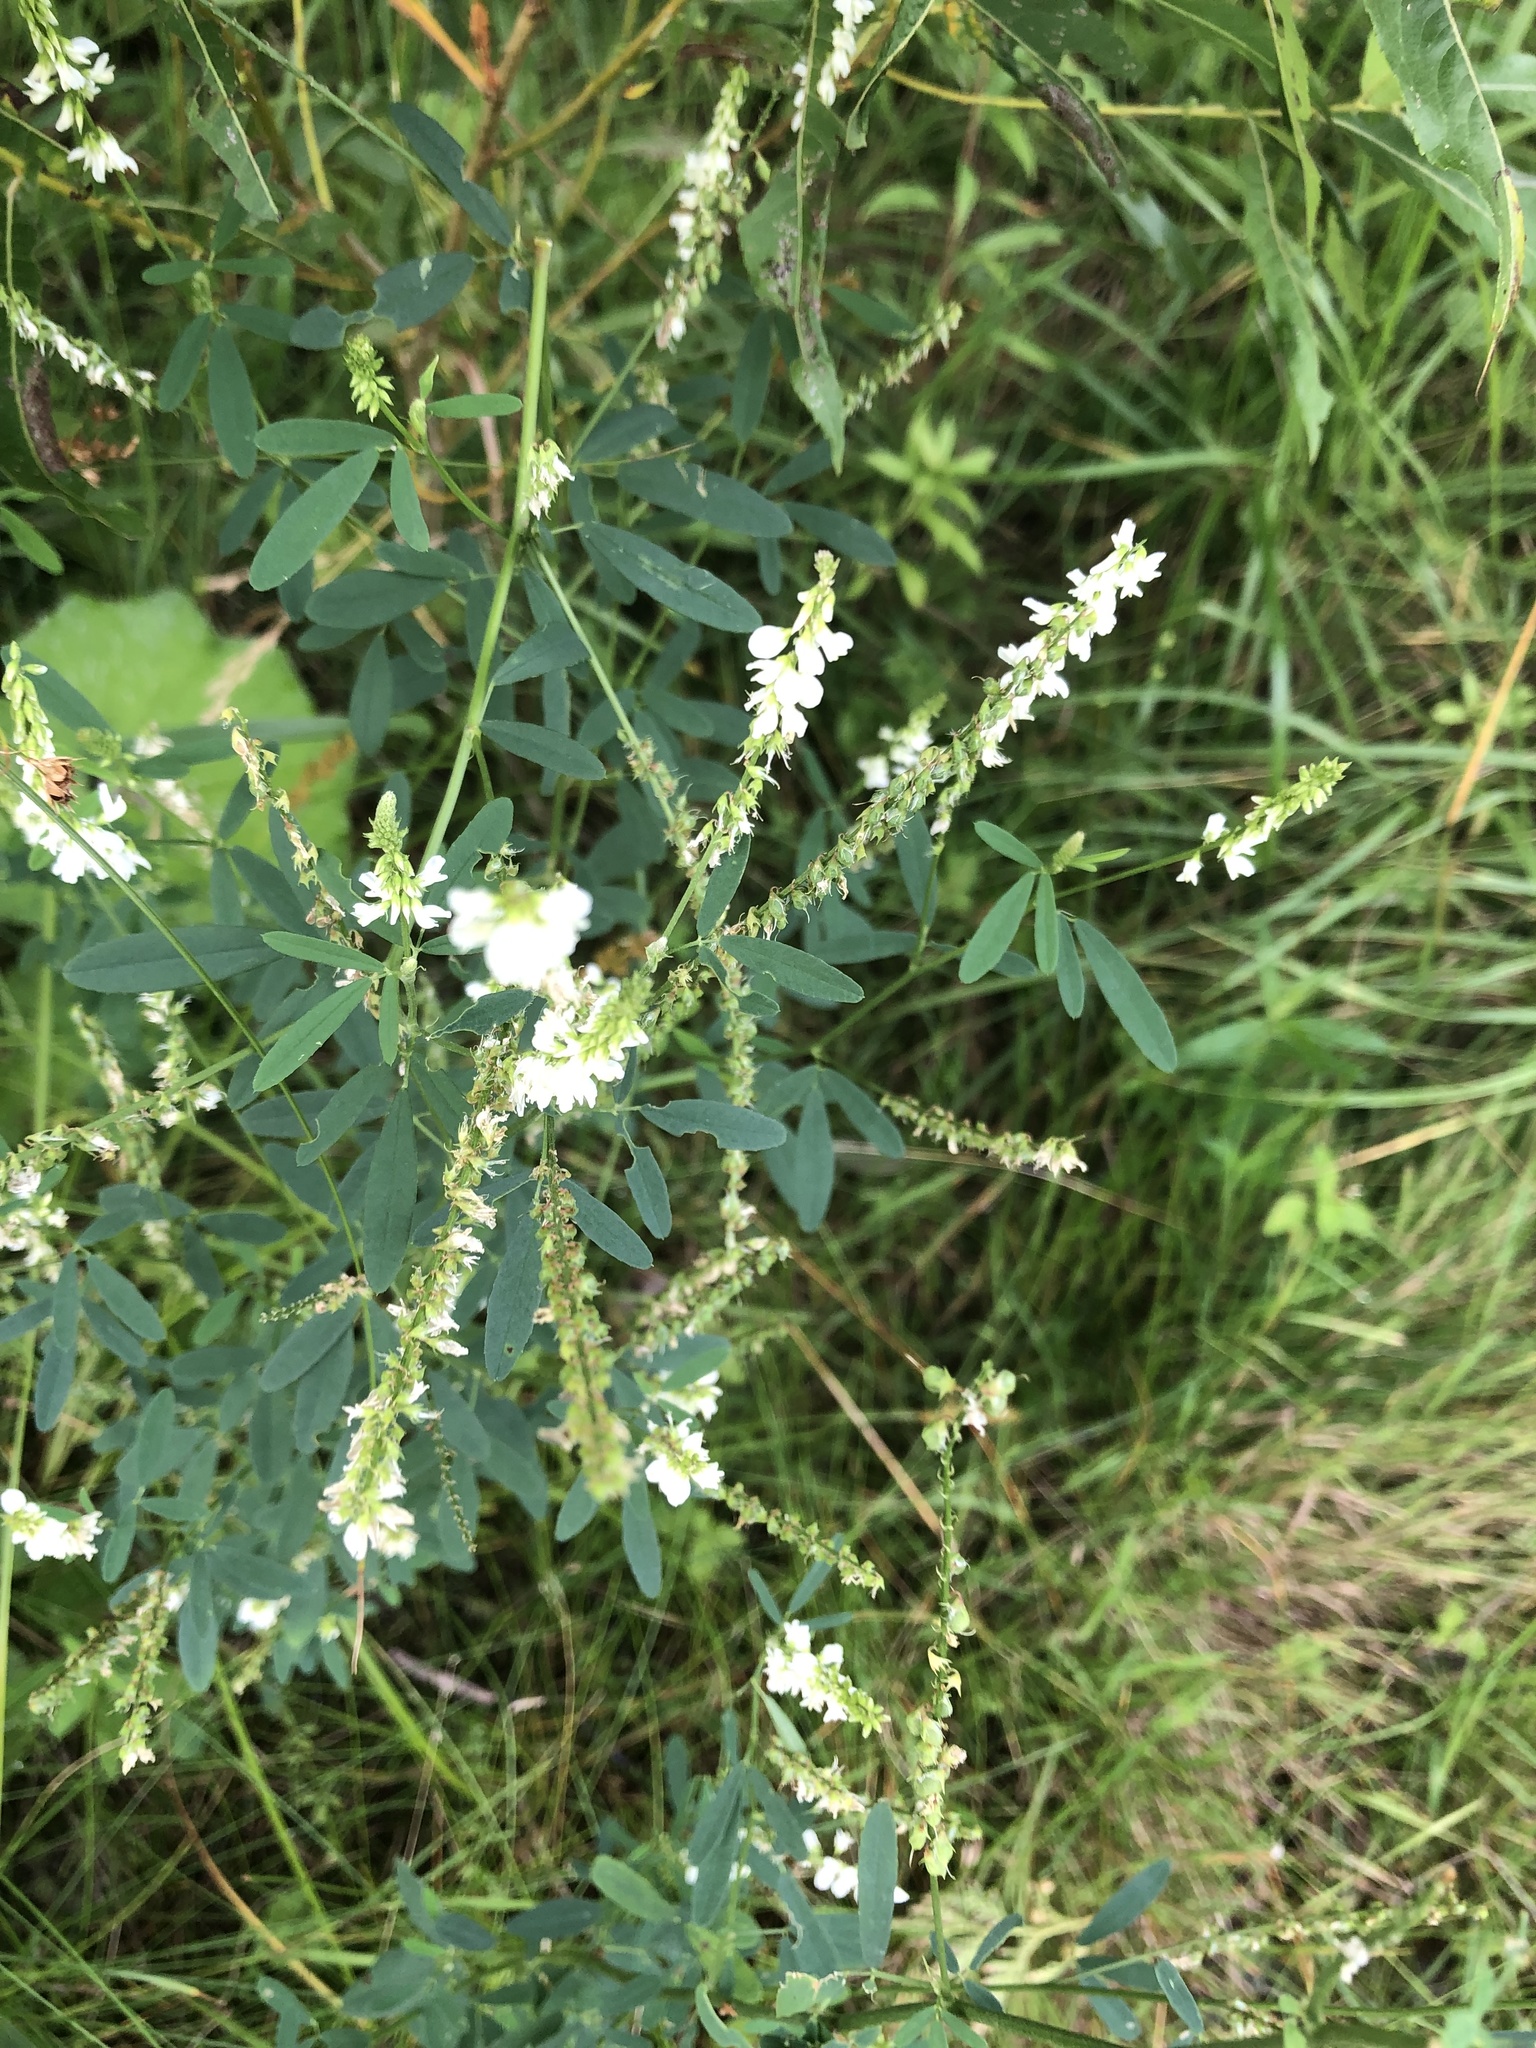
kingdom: Plantae
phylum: Tracheophyta
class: Magnoliopsida
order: Fabales
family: Fabaceae
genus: Melilotus
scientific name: Melilotus albus
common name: White melilot
